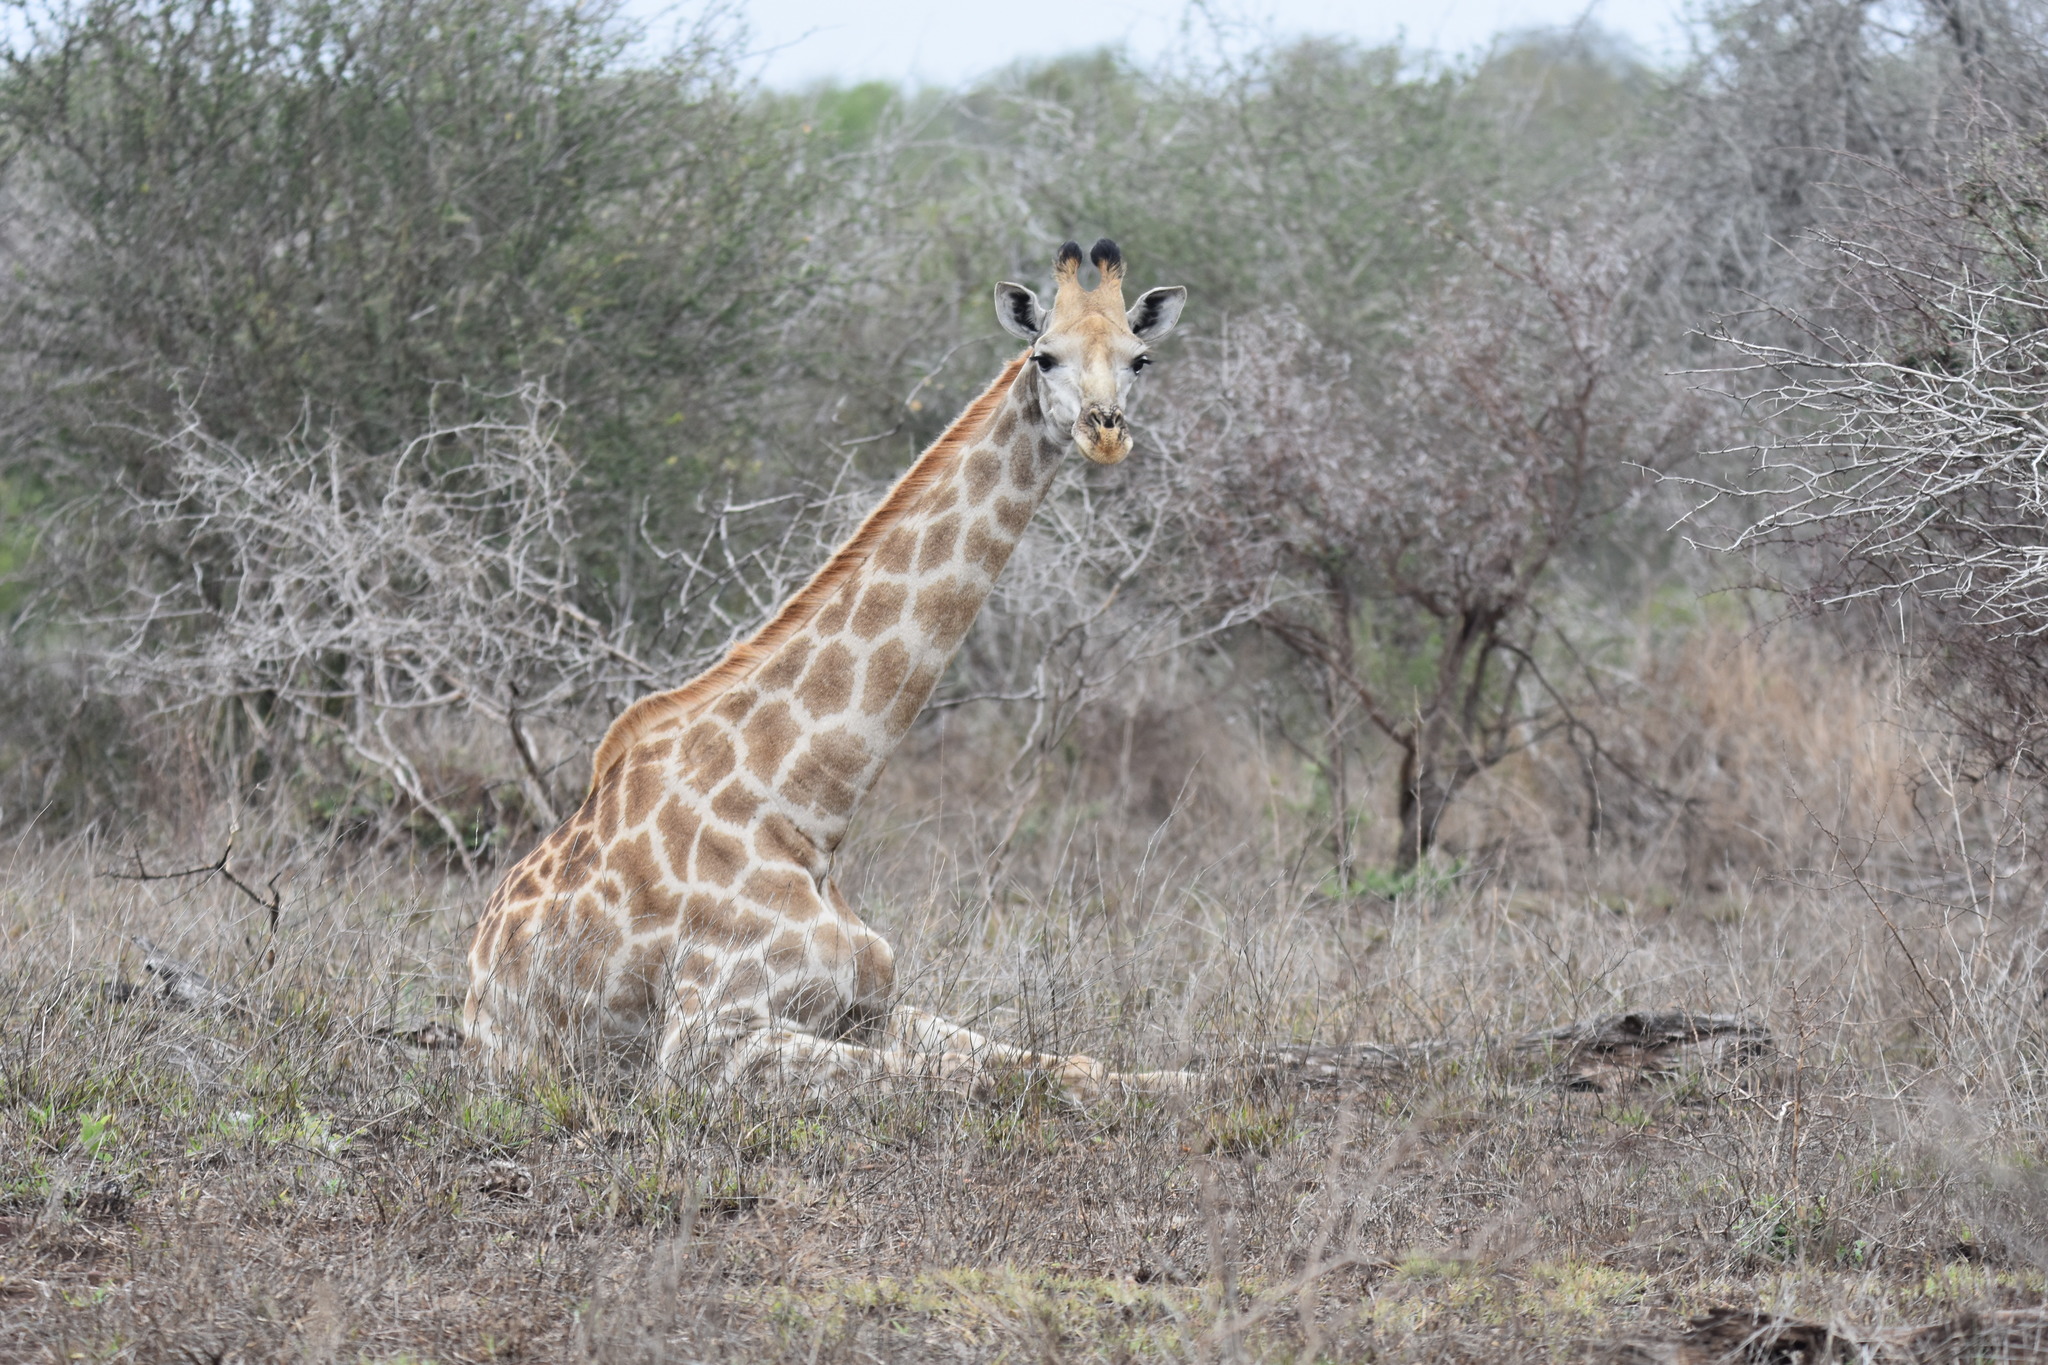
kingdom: Animalia
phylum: Chordata
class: Mammalia
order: Artiodactyla
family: Giraffidae
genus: Giraffa
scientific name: Giraffa giraffa
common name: Southern giraffe
